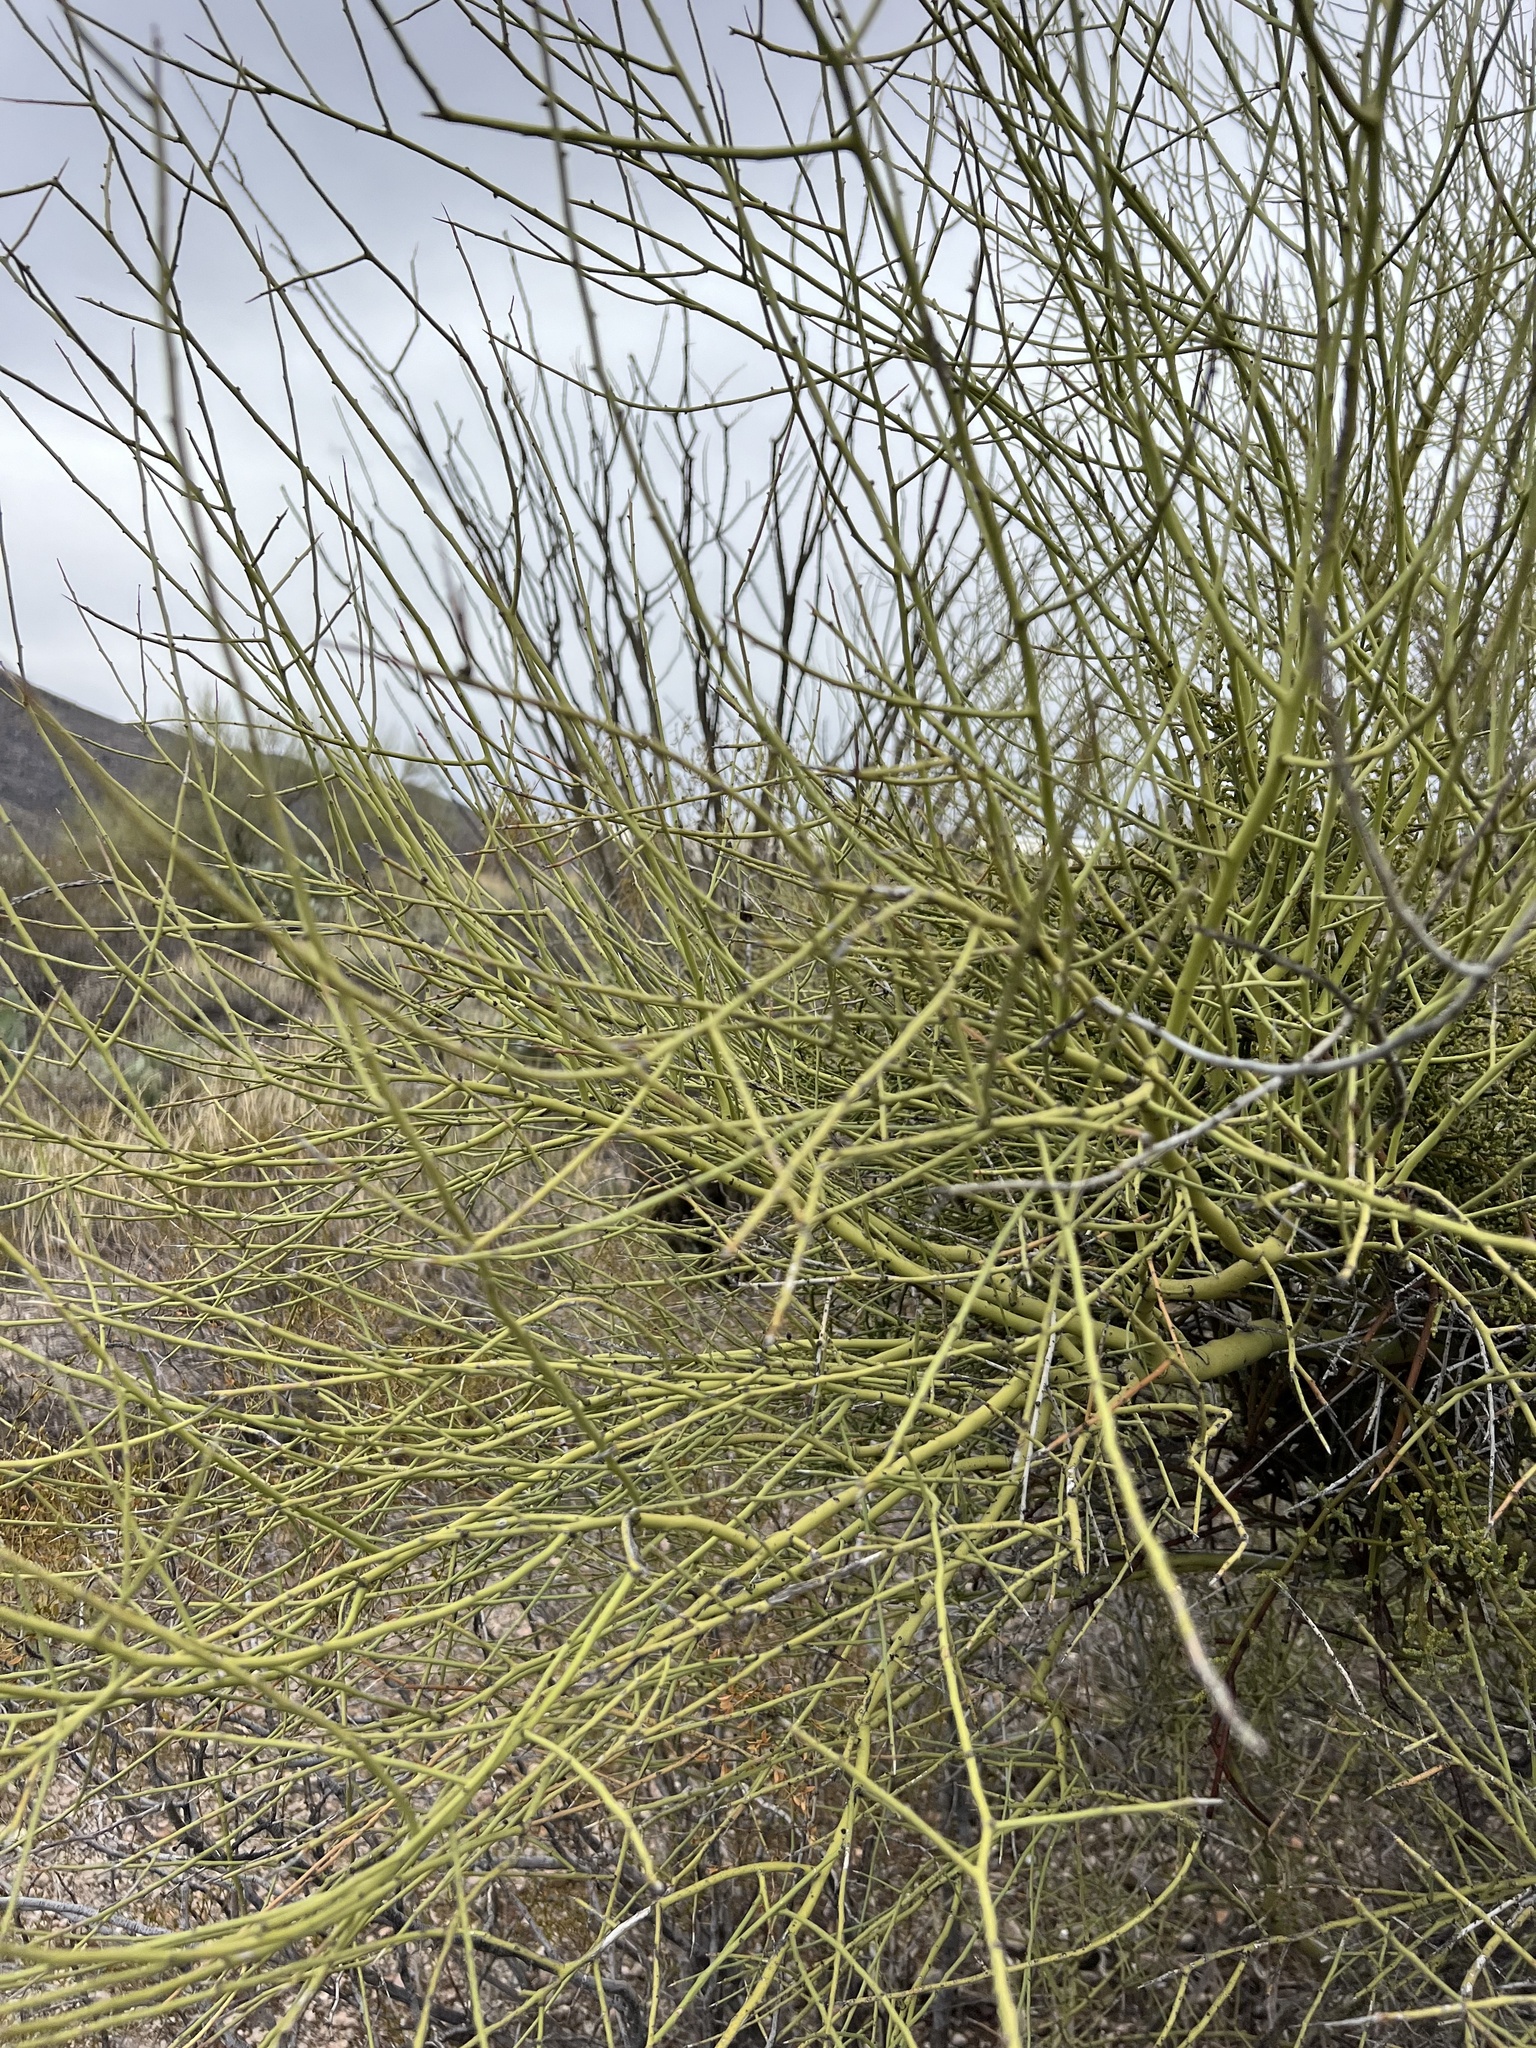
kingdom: Plantae
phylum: Tracheophyta
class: Magnoliopsida
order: Fabales
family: Fabaceae
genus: Parkinsonia
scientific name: Parkinsonia microphylla
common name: Yellow paloverde
